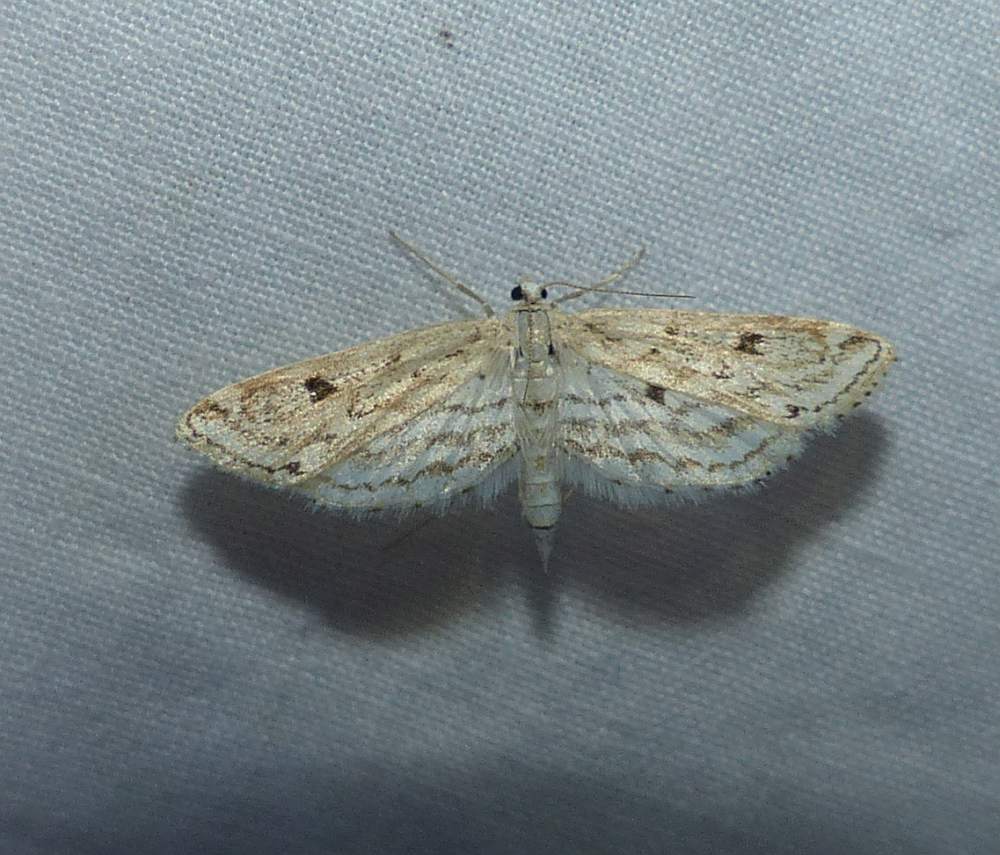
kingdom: Animalia
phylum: Arthropoda
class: Insecta
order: Lepidoptera
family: Crambidae
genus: Parapoynx
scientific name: Parapoynx allionealis
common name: Bladderwort casemaker
